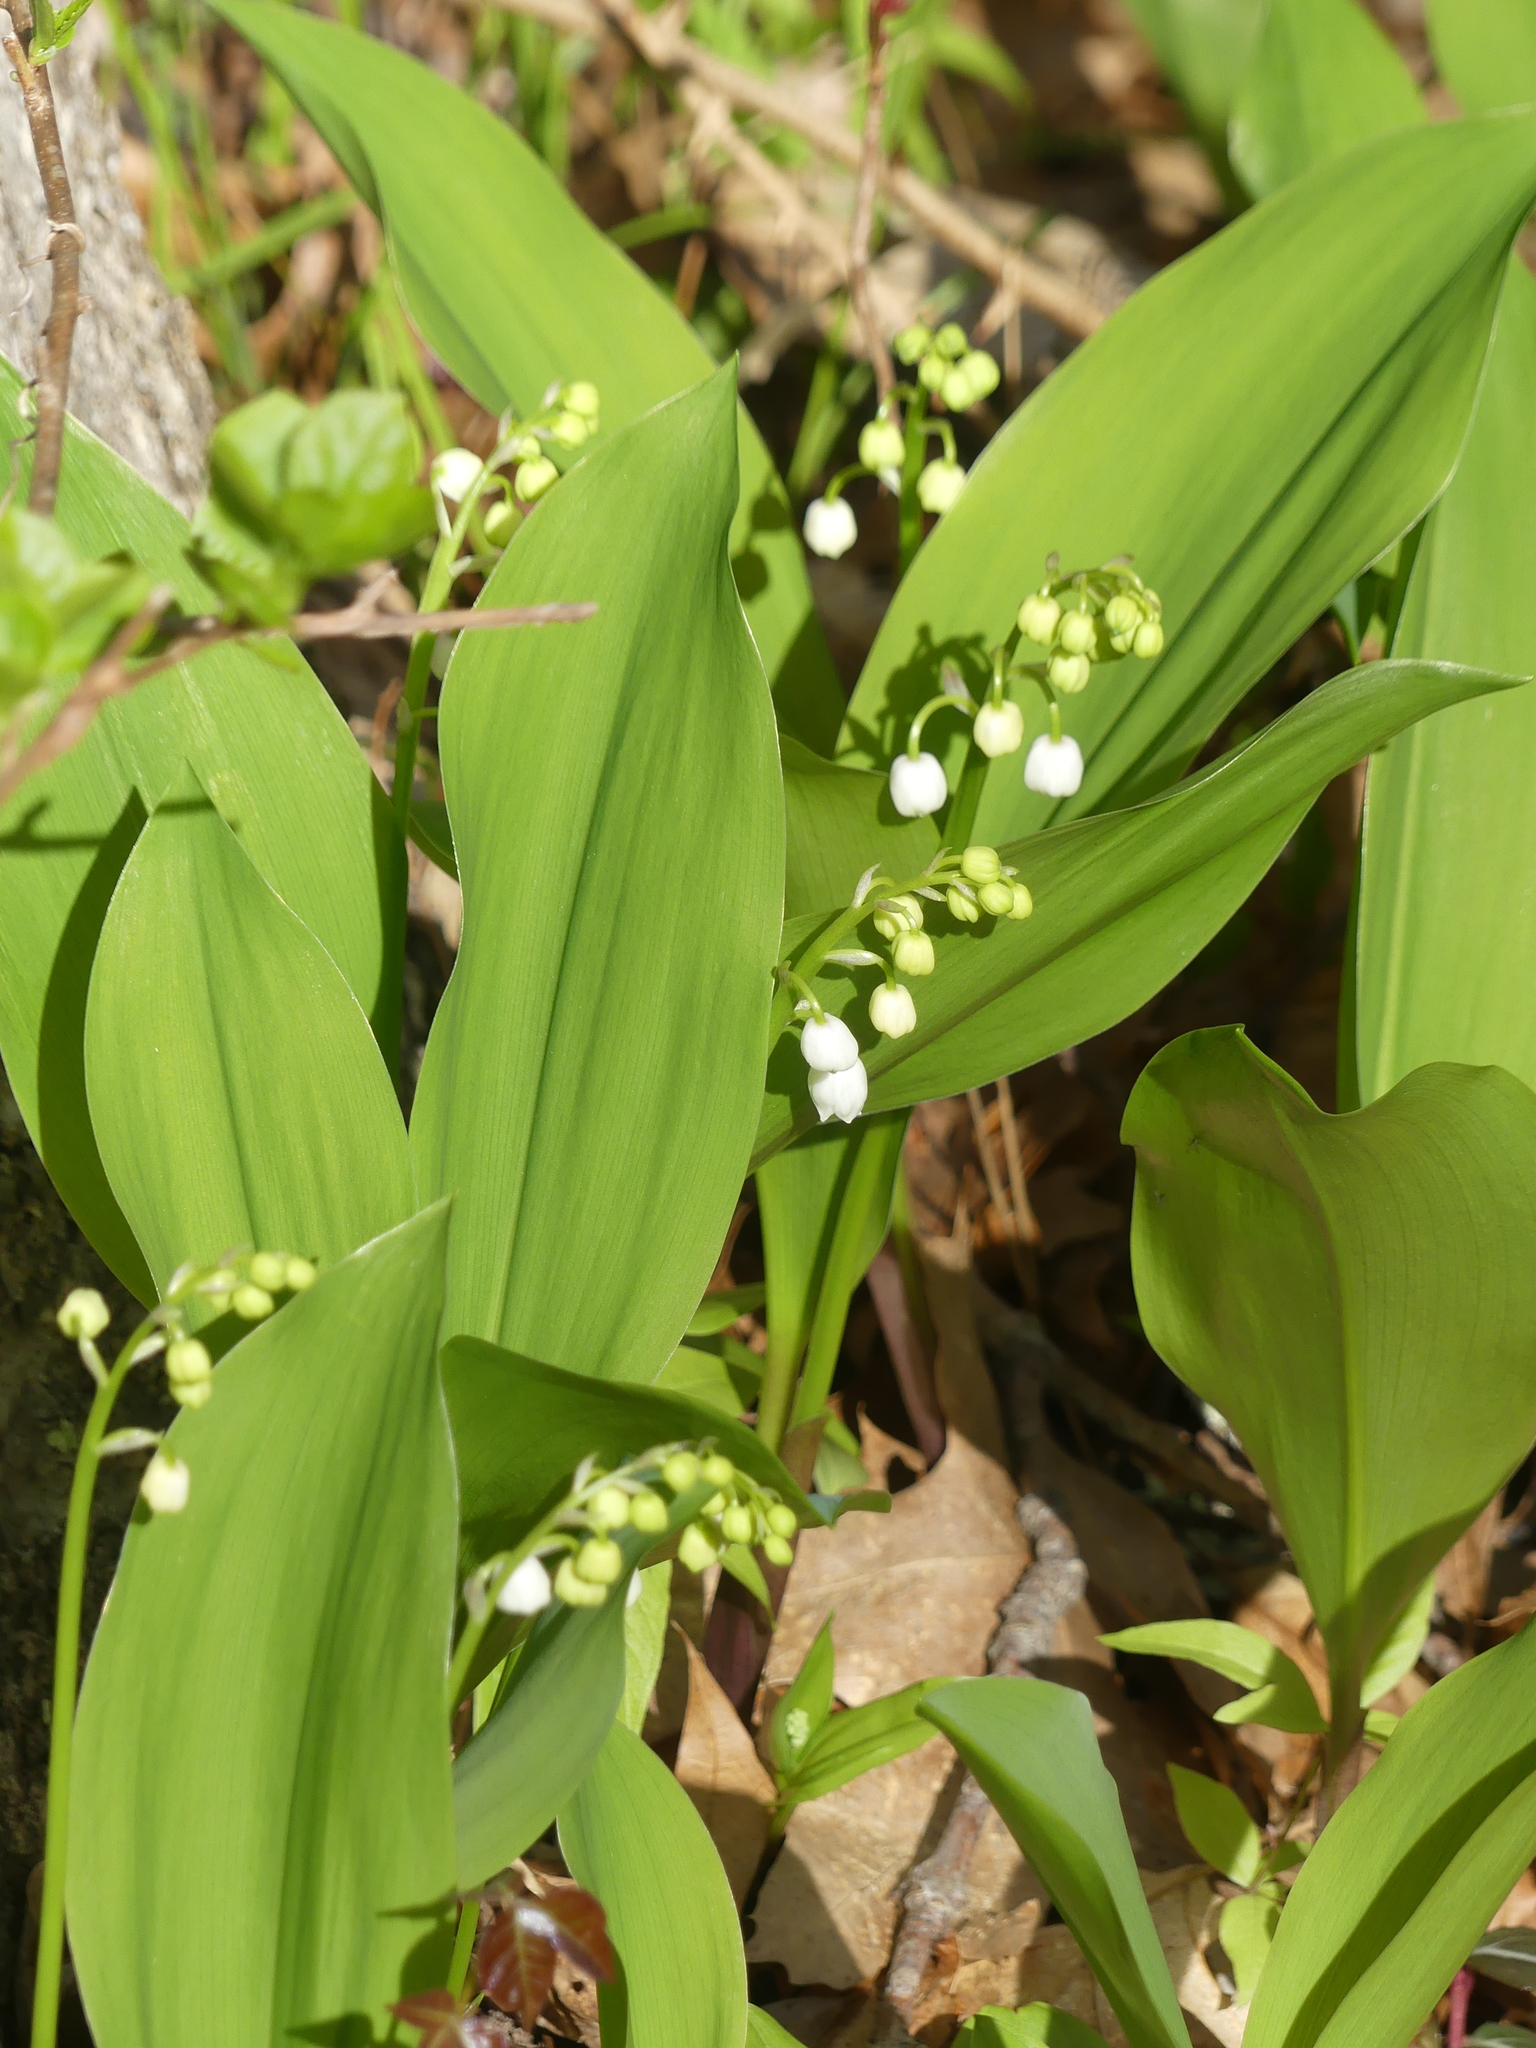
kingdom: Plantae
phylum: Tracheophyta
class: Liliopsida
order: Asparagales
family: Asparagaceae
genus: Convallaria
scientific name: Convallaria majalis
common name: Lily-of-the-valley
